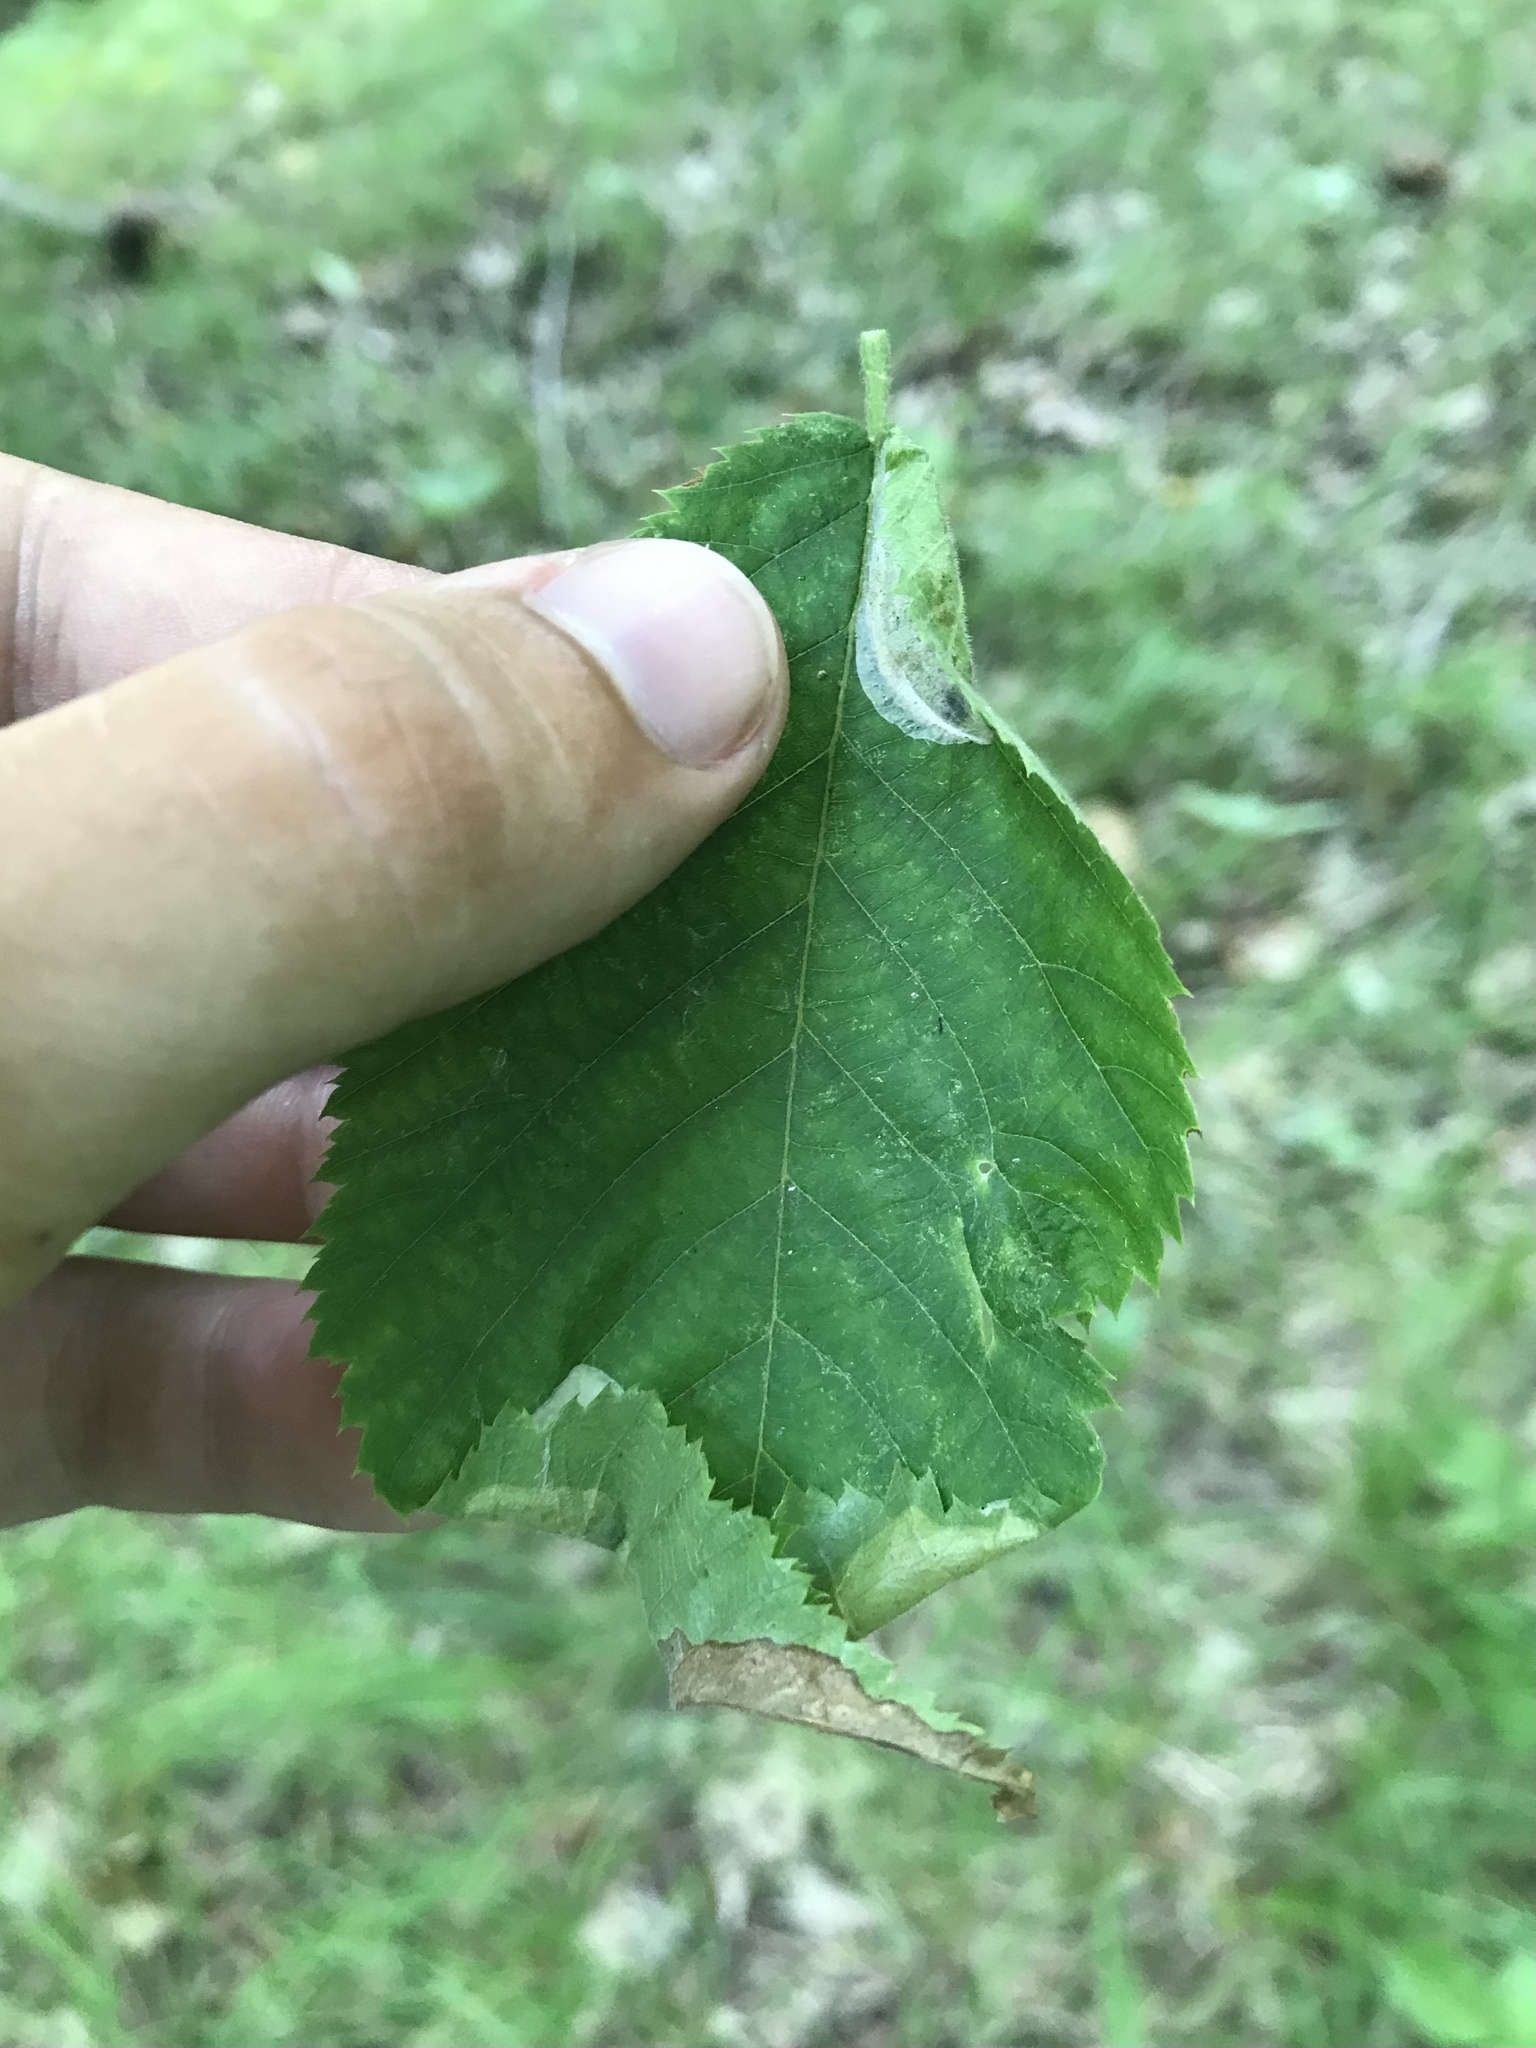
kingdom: Animalia
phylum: Arthropoda
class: Insecta
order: Lepidoptera
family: Gracillariidae
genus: Phyllonorycter
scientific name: Phyllonorycter tritaenianella
